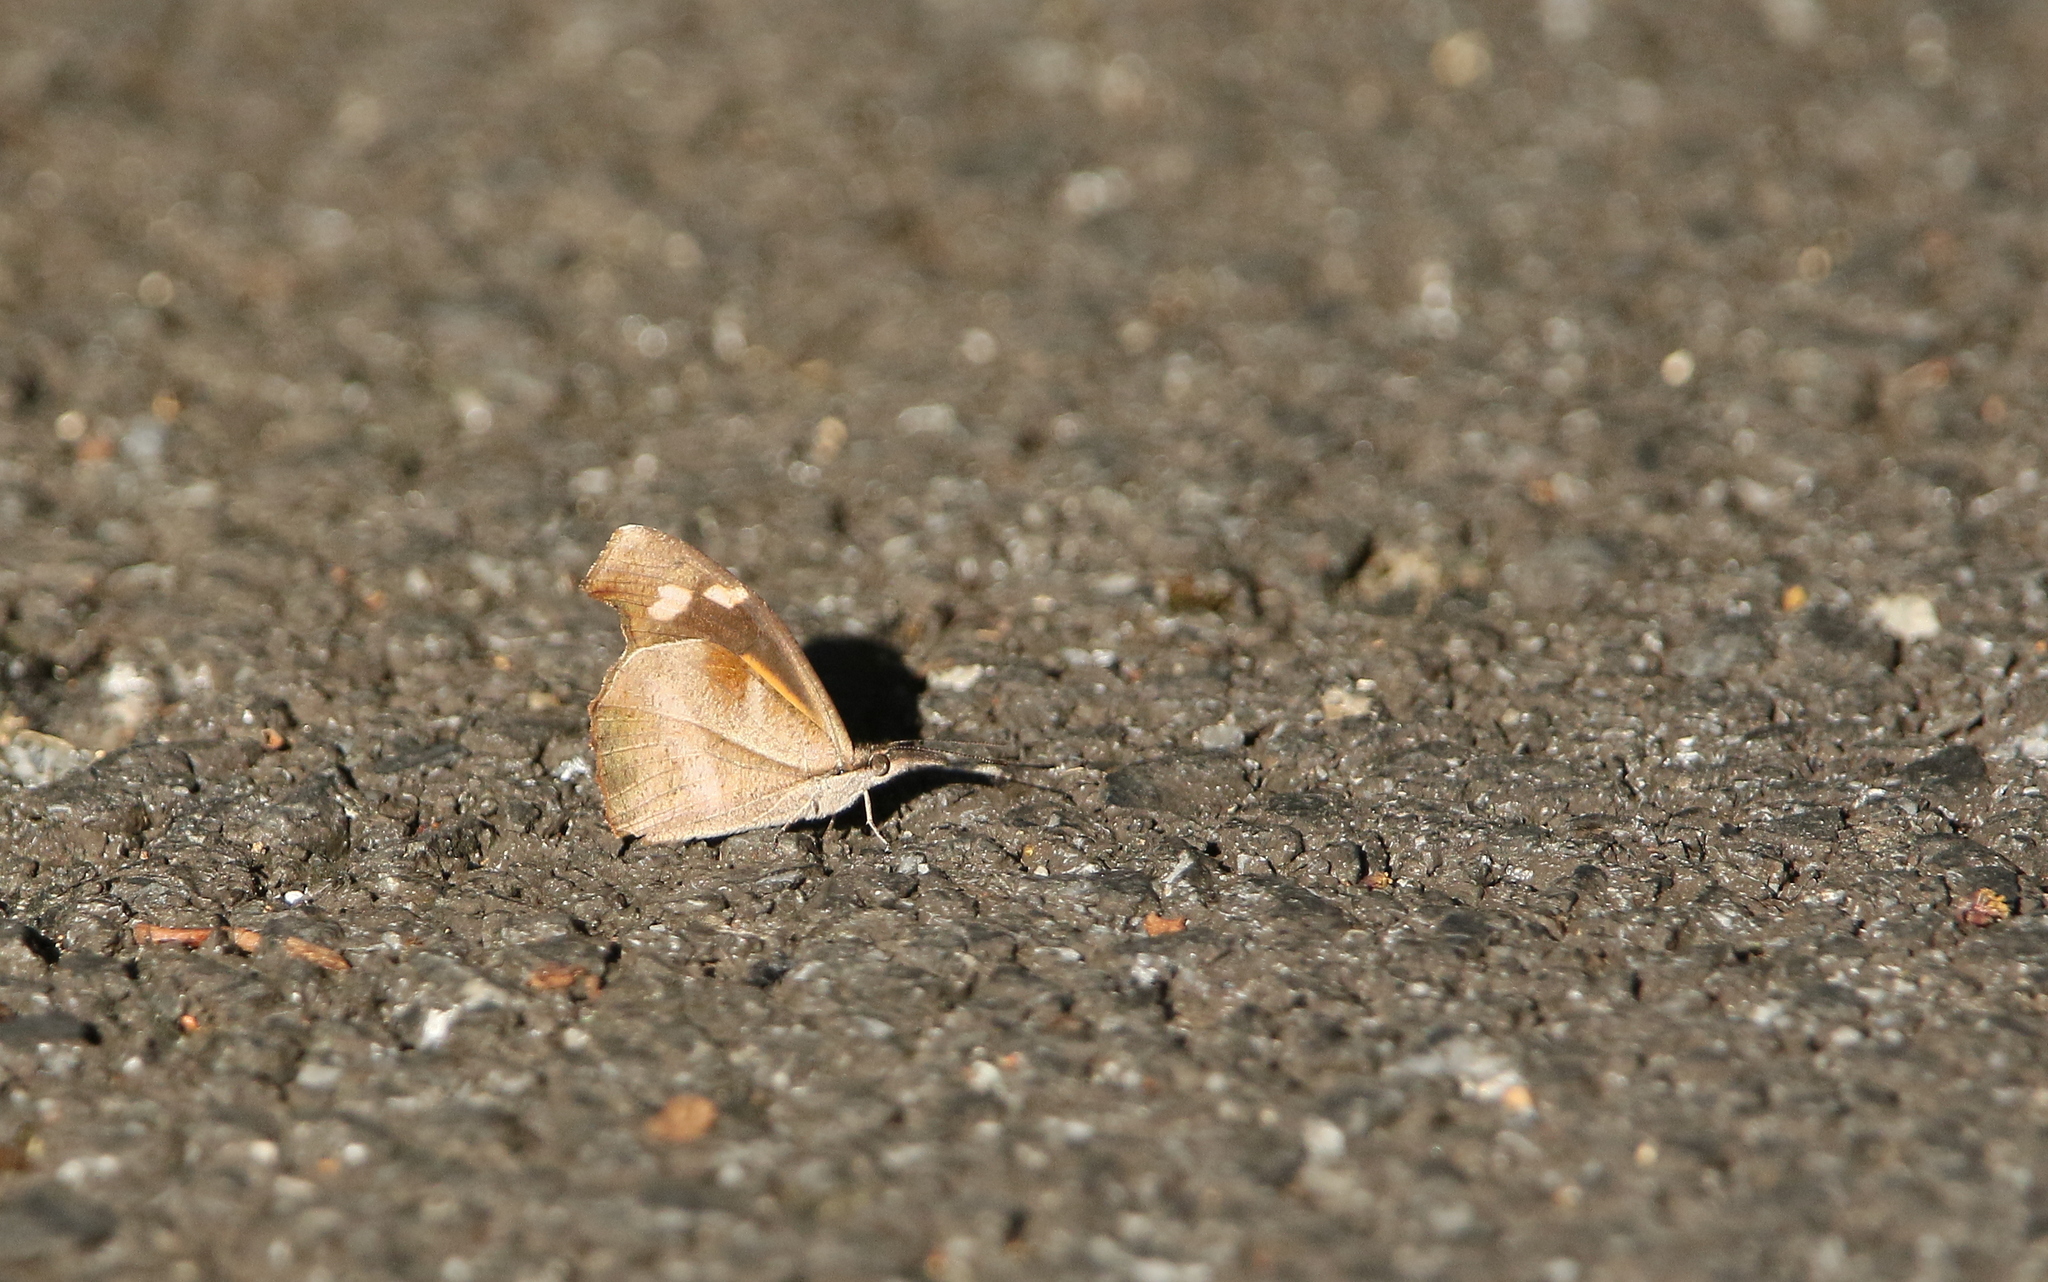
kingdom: Animalia
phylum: Arthropoda
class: Insecta
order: Lepidoptera
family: Nymphalidae
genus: Libythea
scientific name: Libythea myrrha
